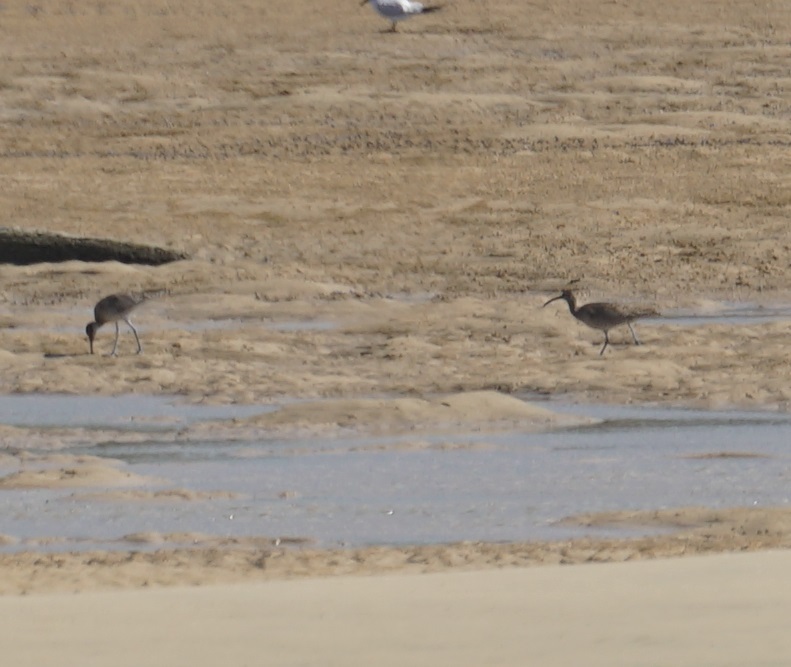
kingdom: Animalia
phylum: Chordata
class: Aves
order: Charadriiformes
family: Scolopacidae
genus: Numenius
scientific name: Numenius phaeopus
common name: Whimbrel
